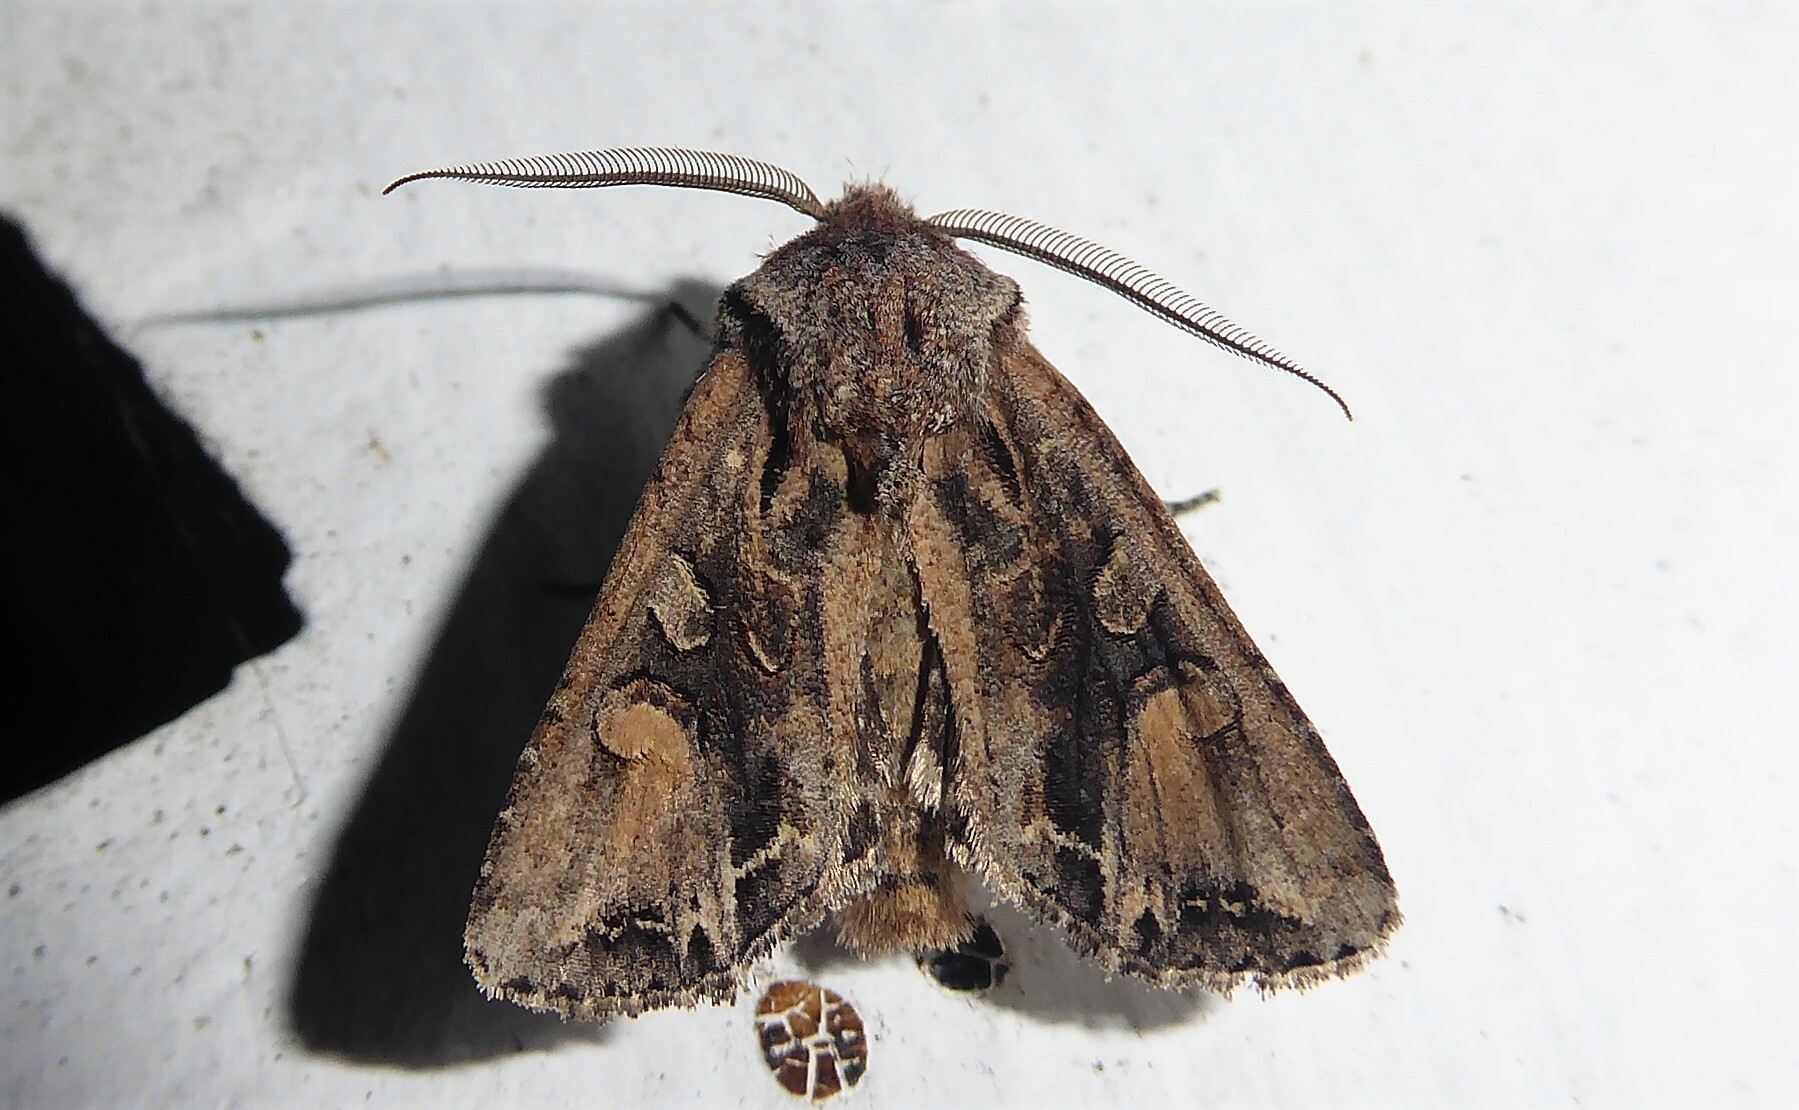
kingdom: Animalia
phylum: Arthropoda
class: Insecta
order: Lepidoptera
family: Noctuidae
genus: Ichneutica
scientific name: Ichneutica
